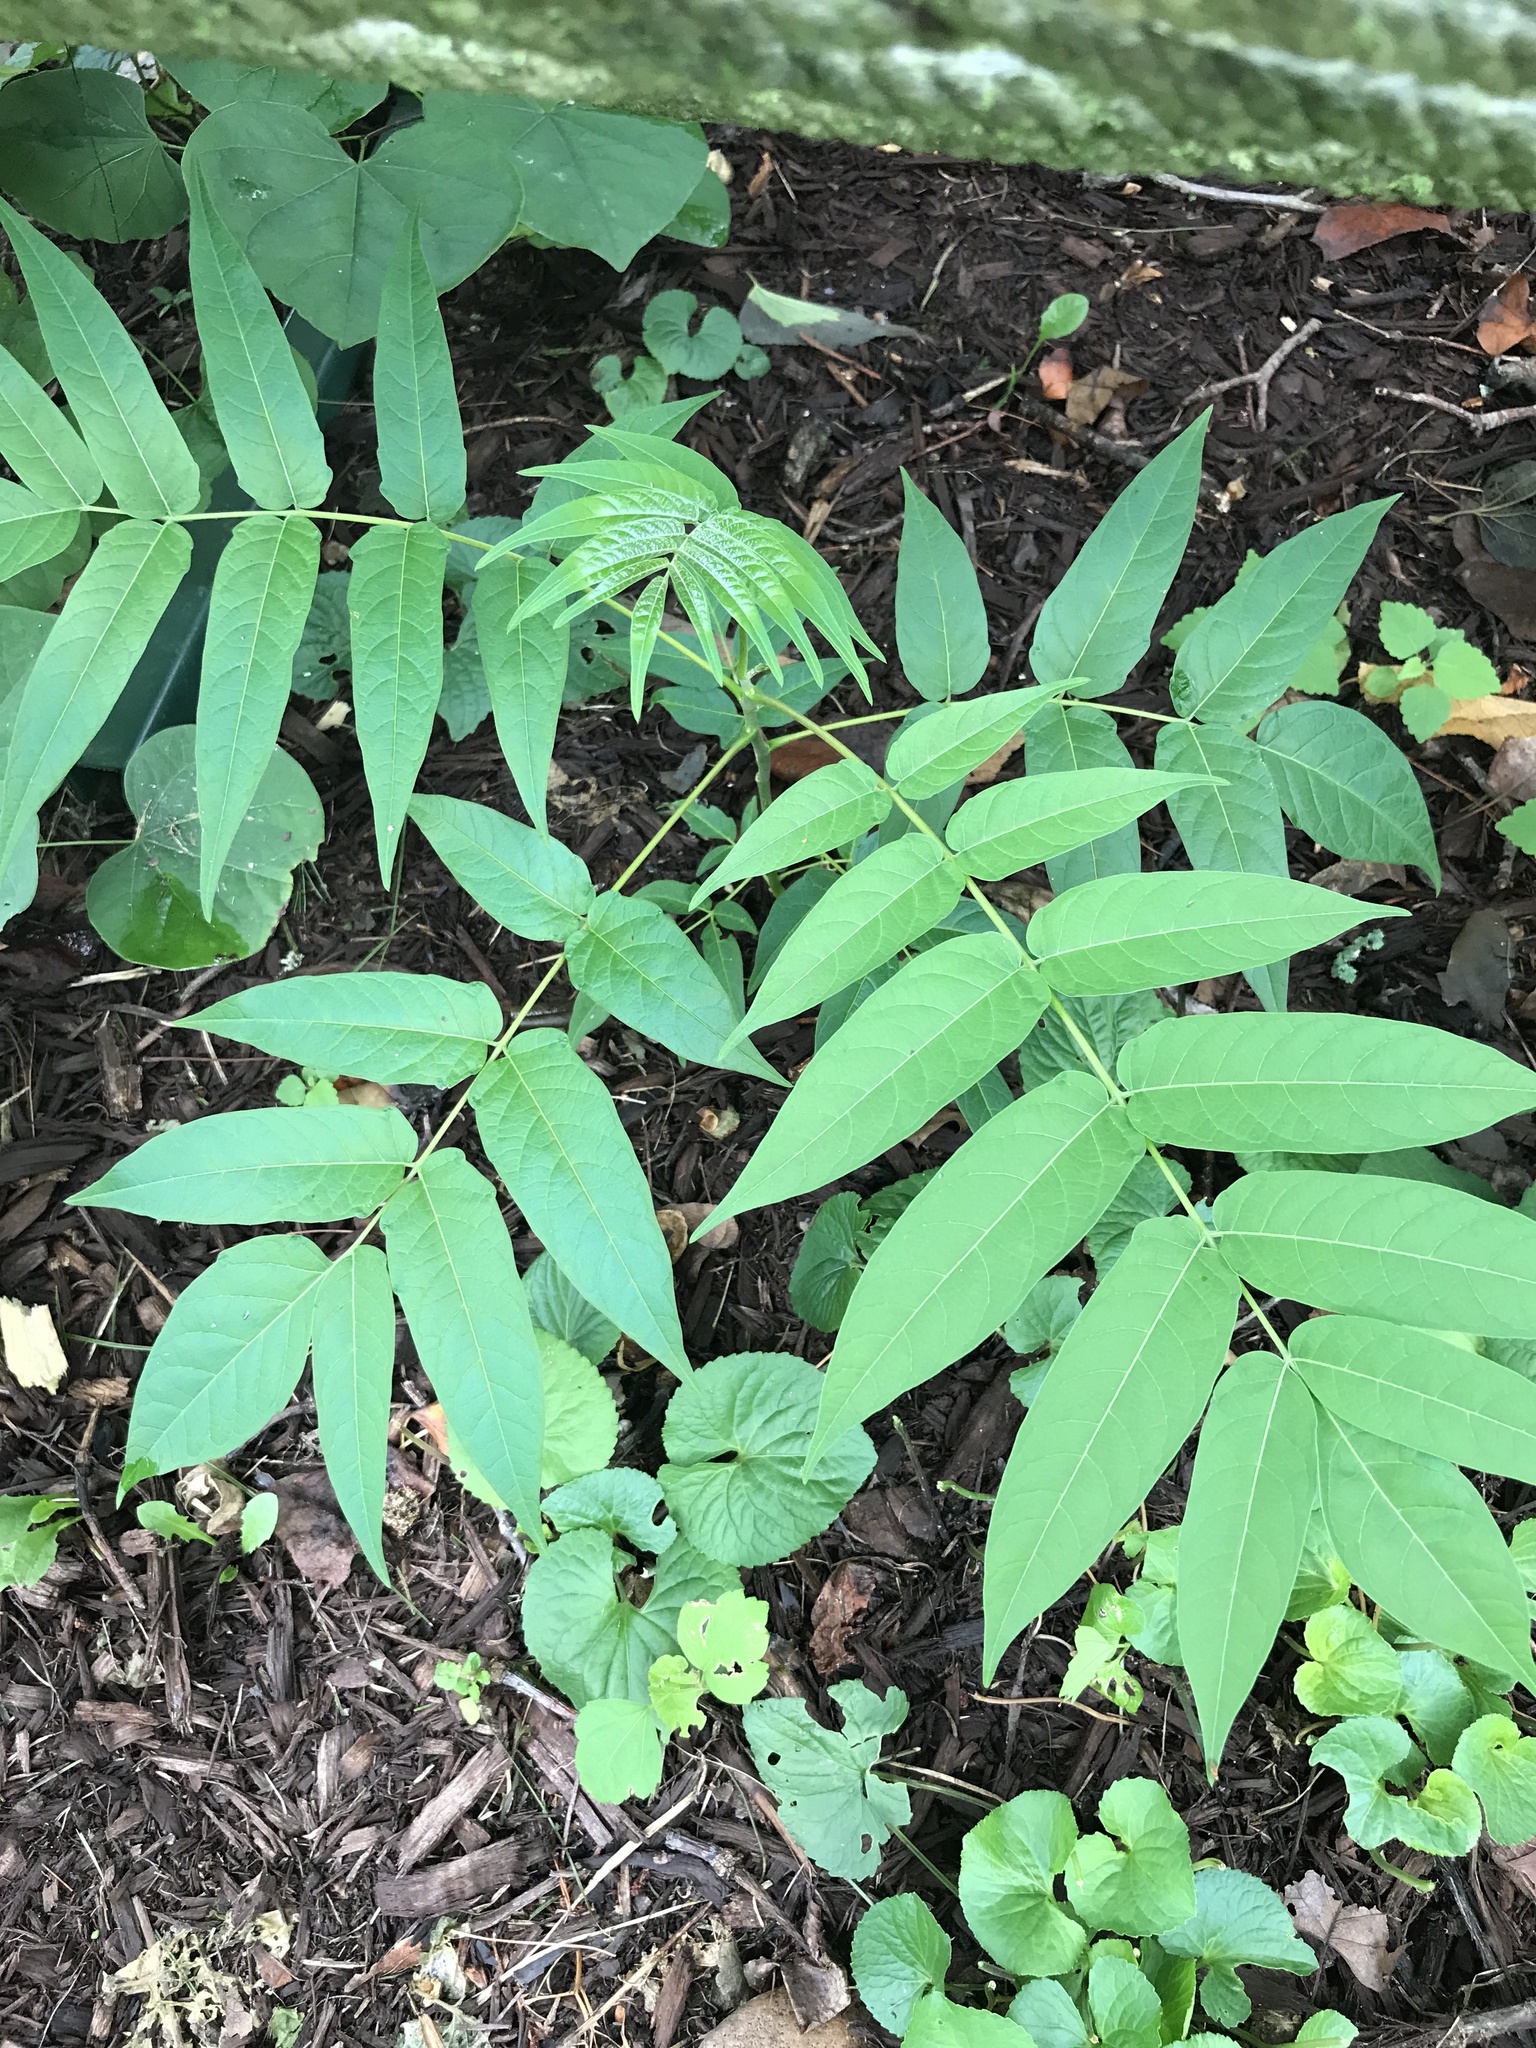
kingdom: Plantae
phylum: Tracheophyta
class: Magnoliopsida
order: Sapindales
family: Simaroubaceae
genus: Ailanthus
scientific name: Ailanthus altissima
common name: Tree-of-heaven
